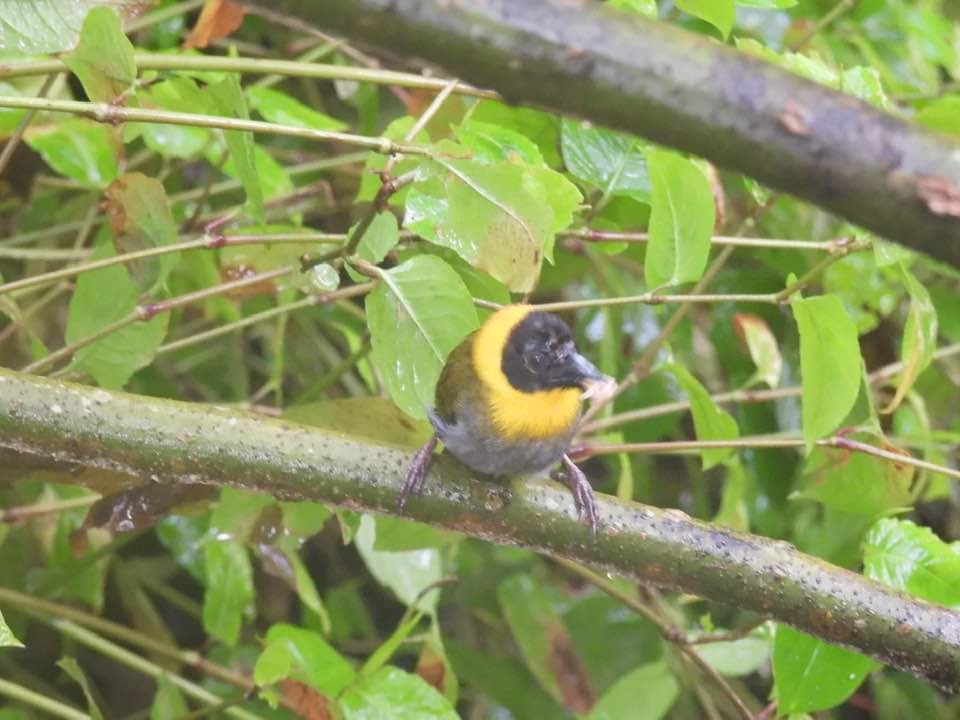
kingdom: Animalia
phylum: Chordata
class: Aves
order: Passeriformes
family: Ploceidae
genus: Ploceus
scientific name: Ploceus nelicourvi
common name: Nelicourvi weaver
